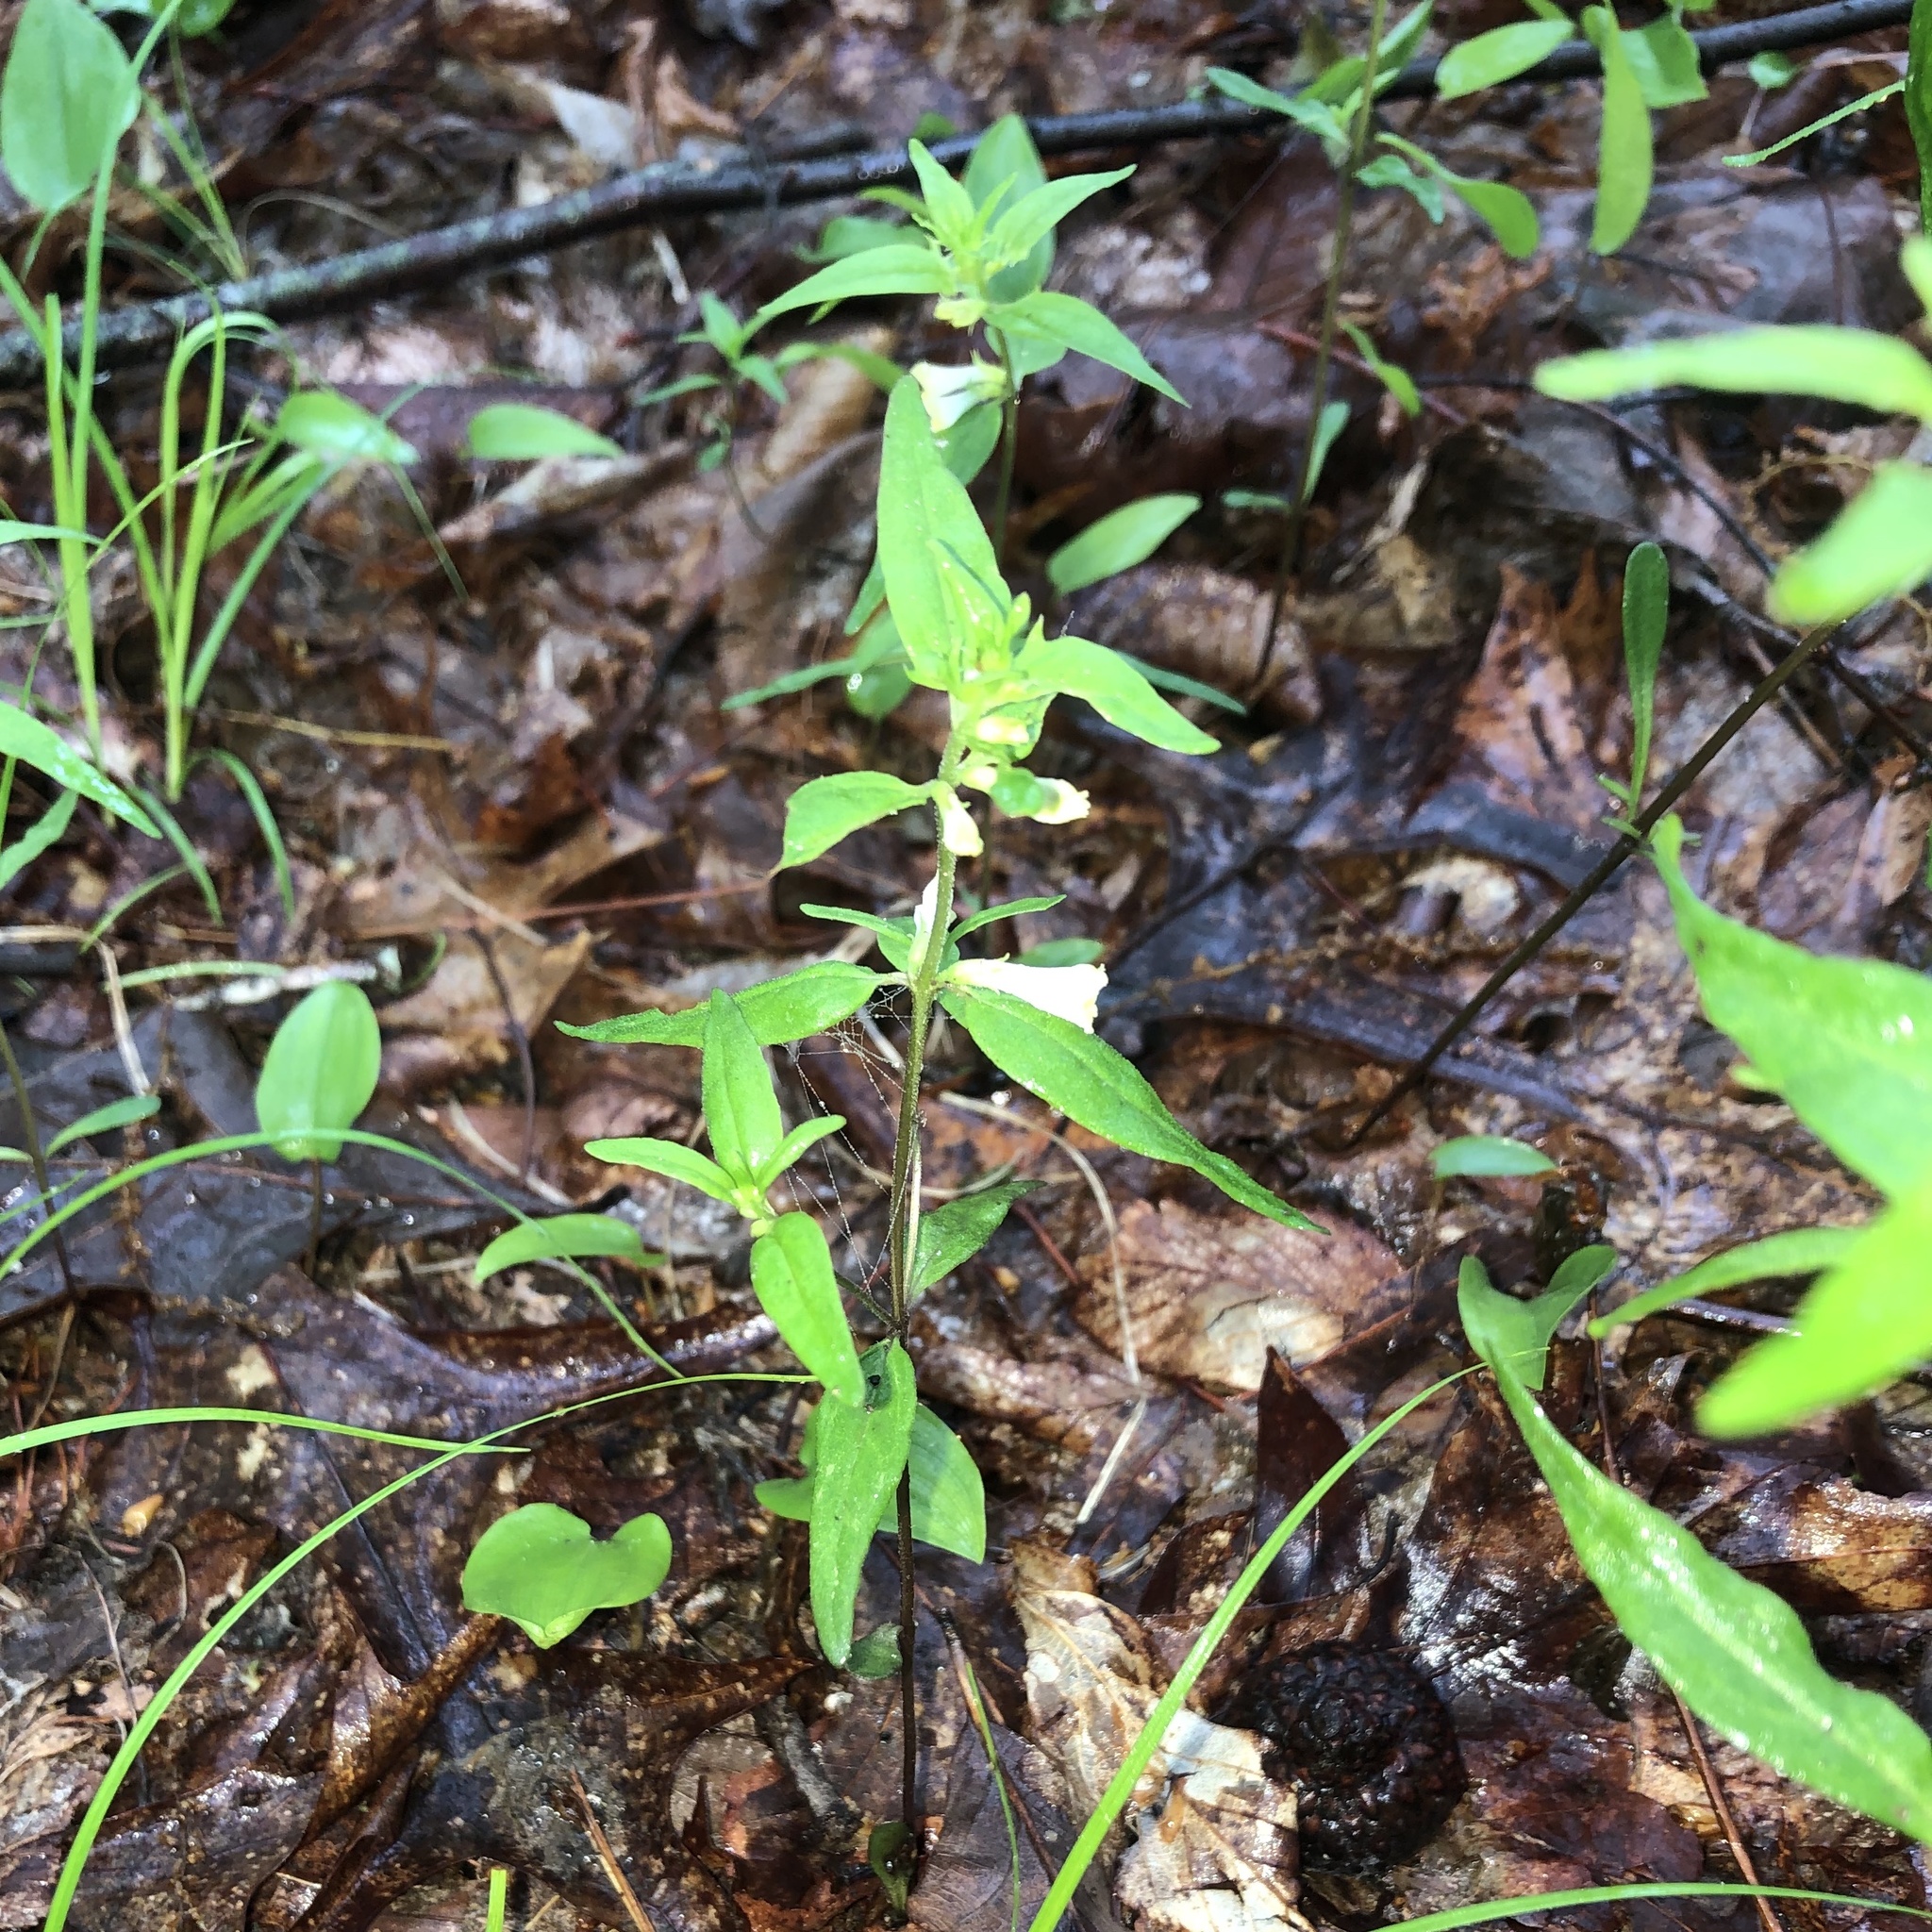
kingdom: Plantae
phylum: Tracheophyta
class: Magnoliopsida
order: Lamiales
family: Orobanchaceae
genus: Melampyrum
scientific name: Melampyrum lineare
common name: American cow-wheat
